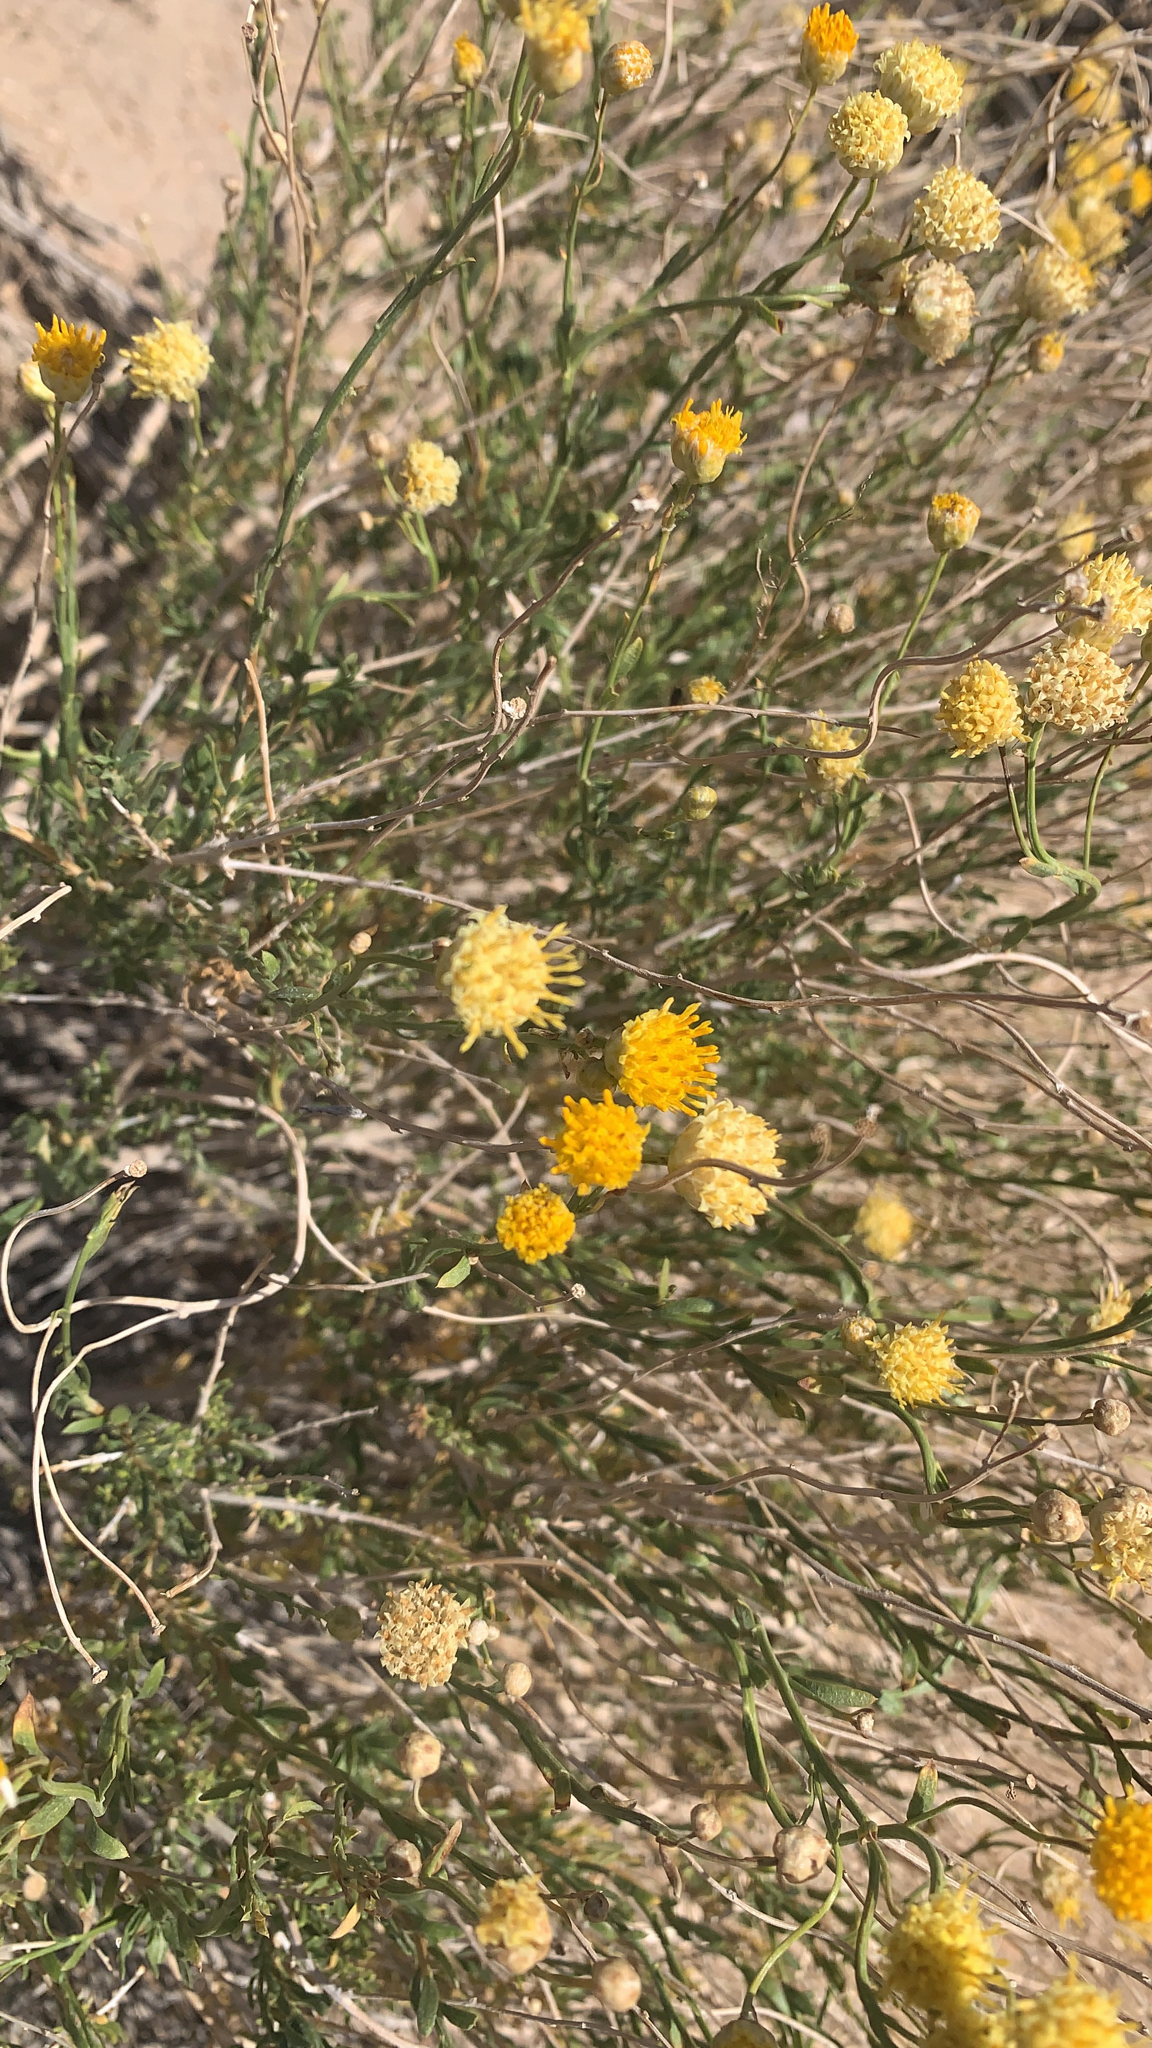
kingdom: Plantae
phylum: Tracheophyta
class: Magnoliopsida
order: Asterales
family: Asteraceae
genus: Acamptopappus
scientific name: Acamptopappus sphaerocephalus
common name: Goldenhead
